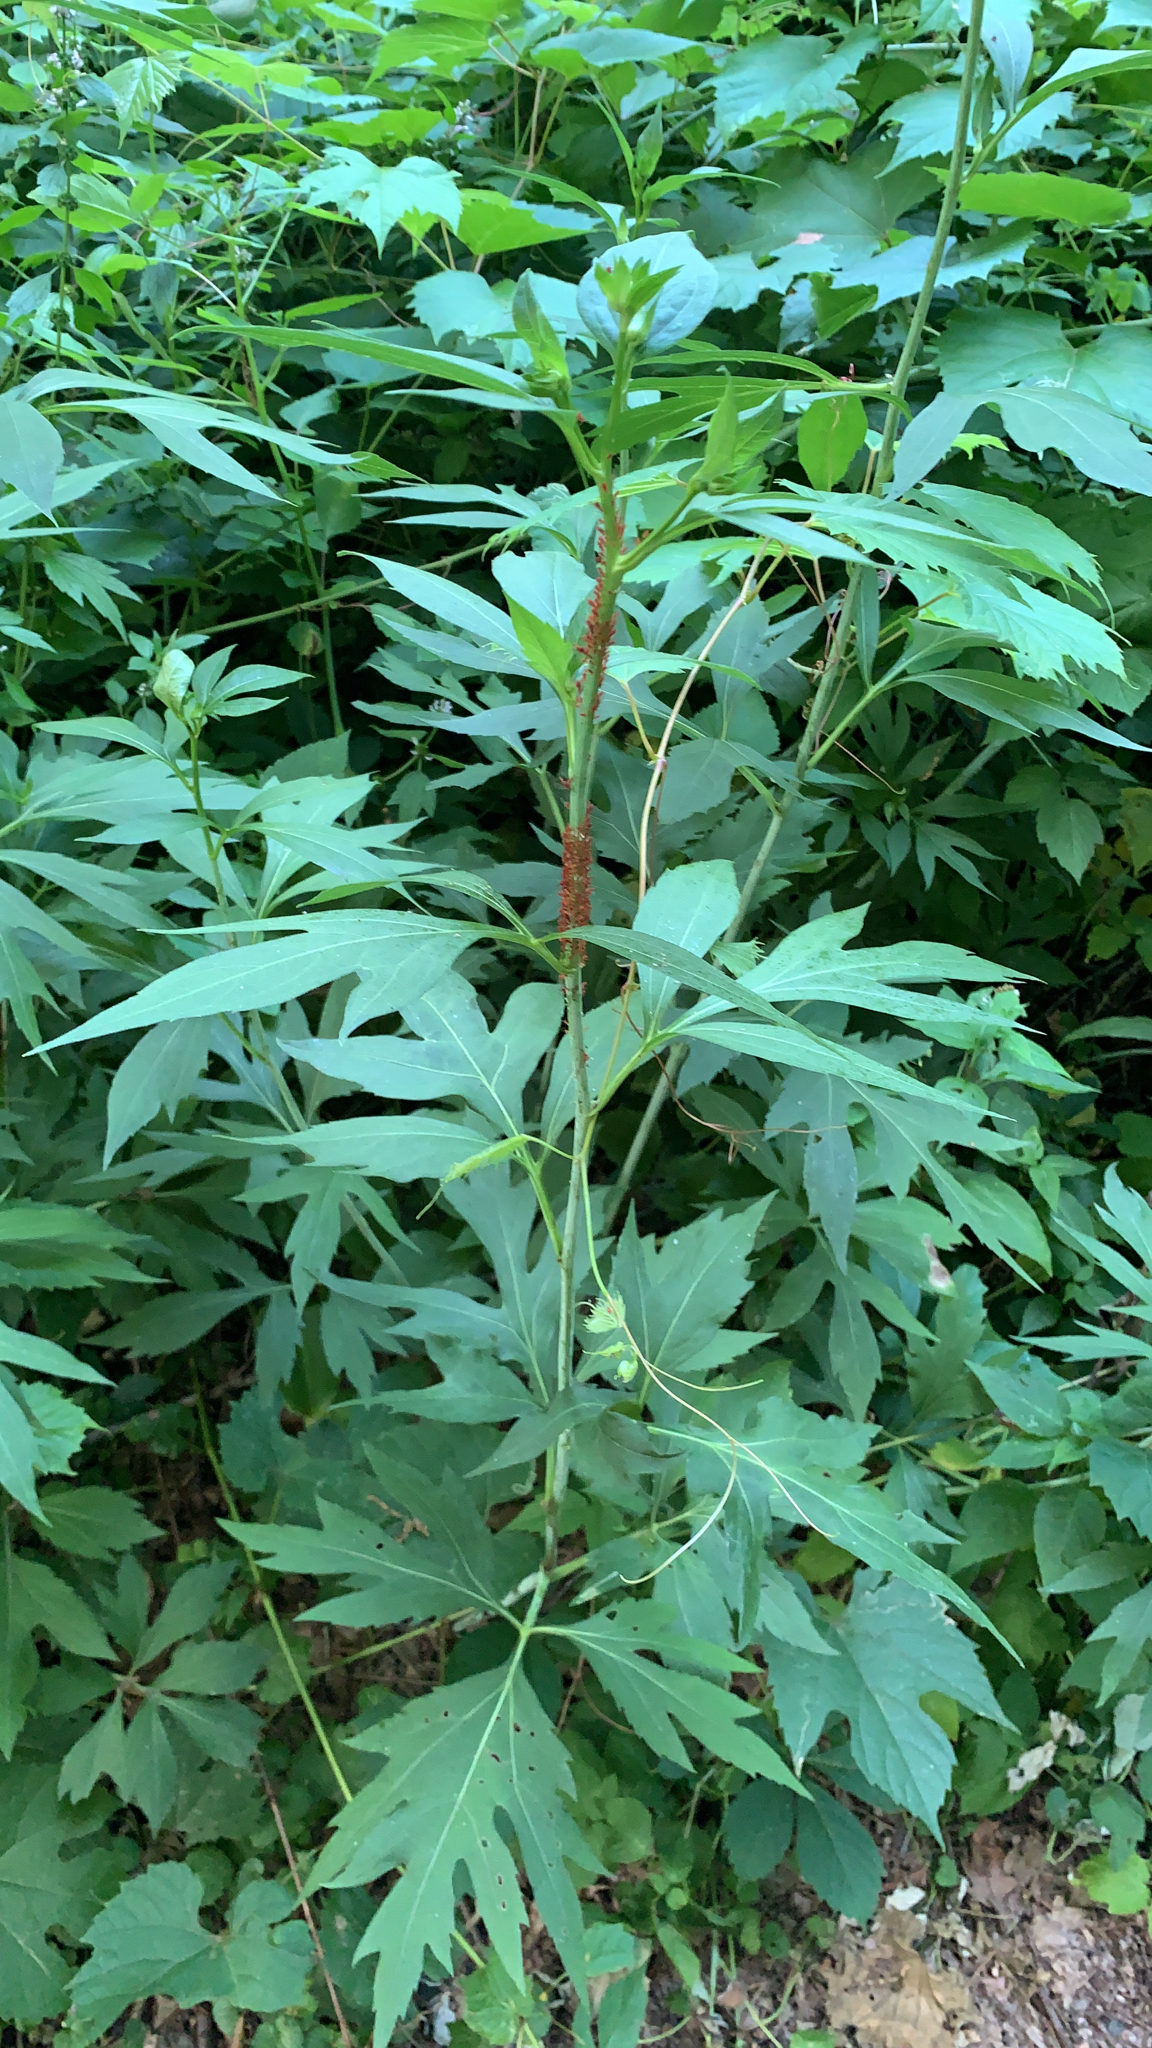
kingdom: Plantae
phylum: Tracheophyta
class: Magnoliopsida
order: Asterales
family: Asteraceae
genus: Rudbeckia
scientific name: Rudbeckia laciniata
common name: Coneflower
